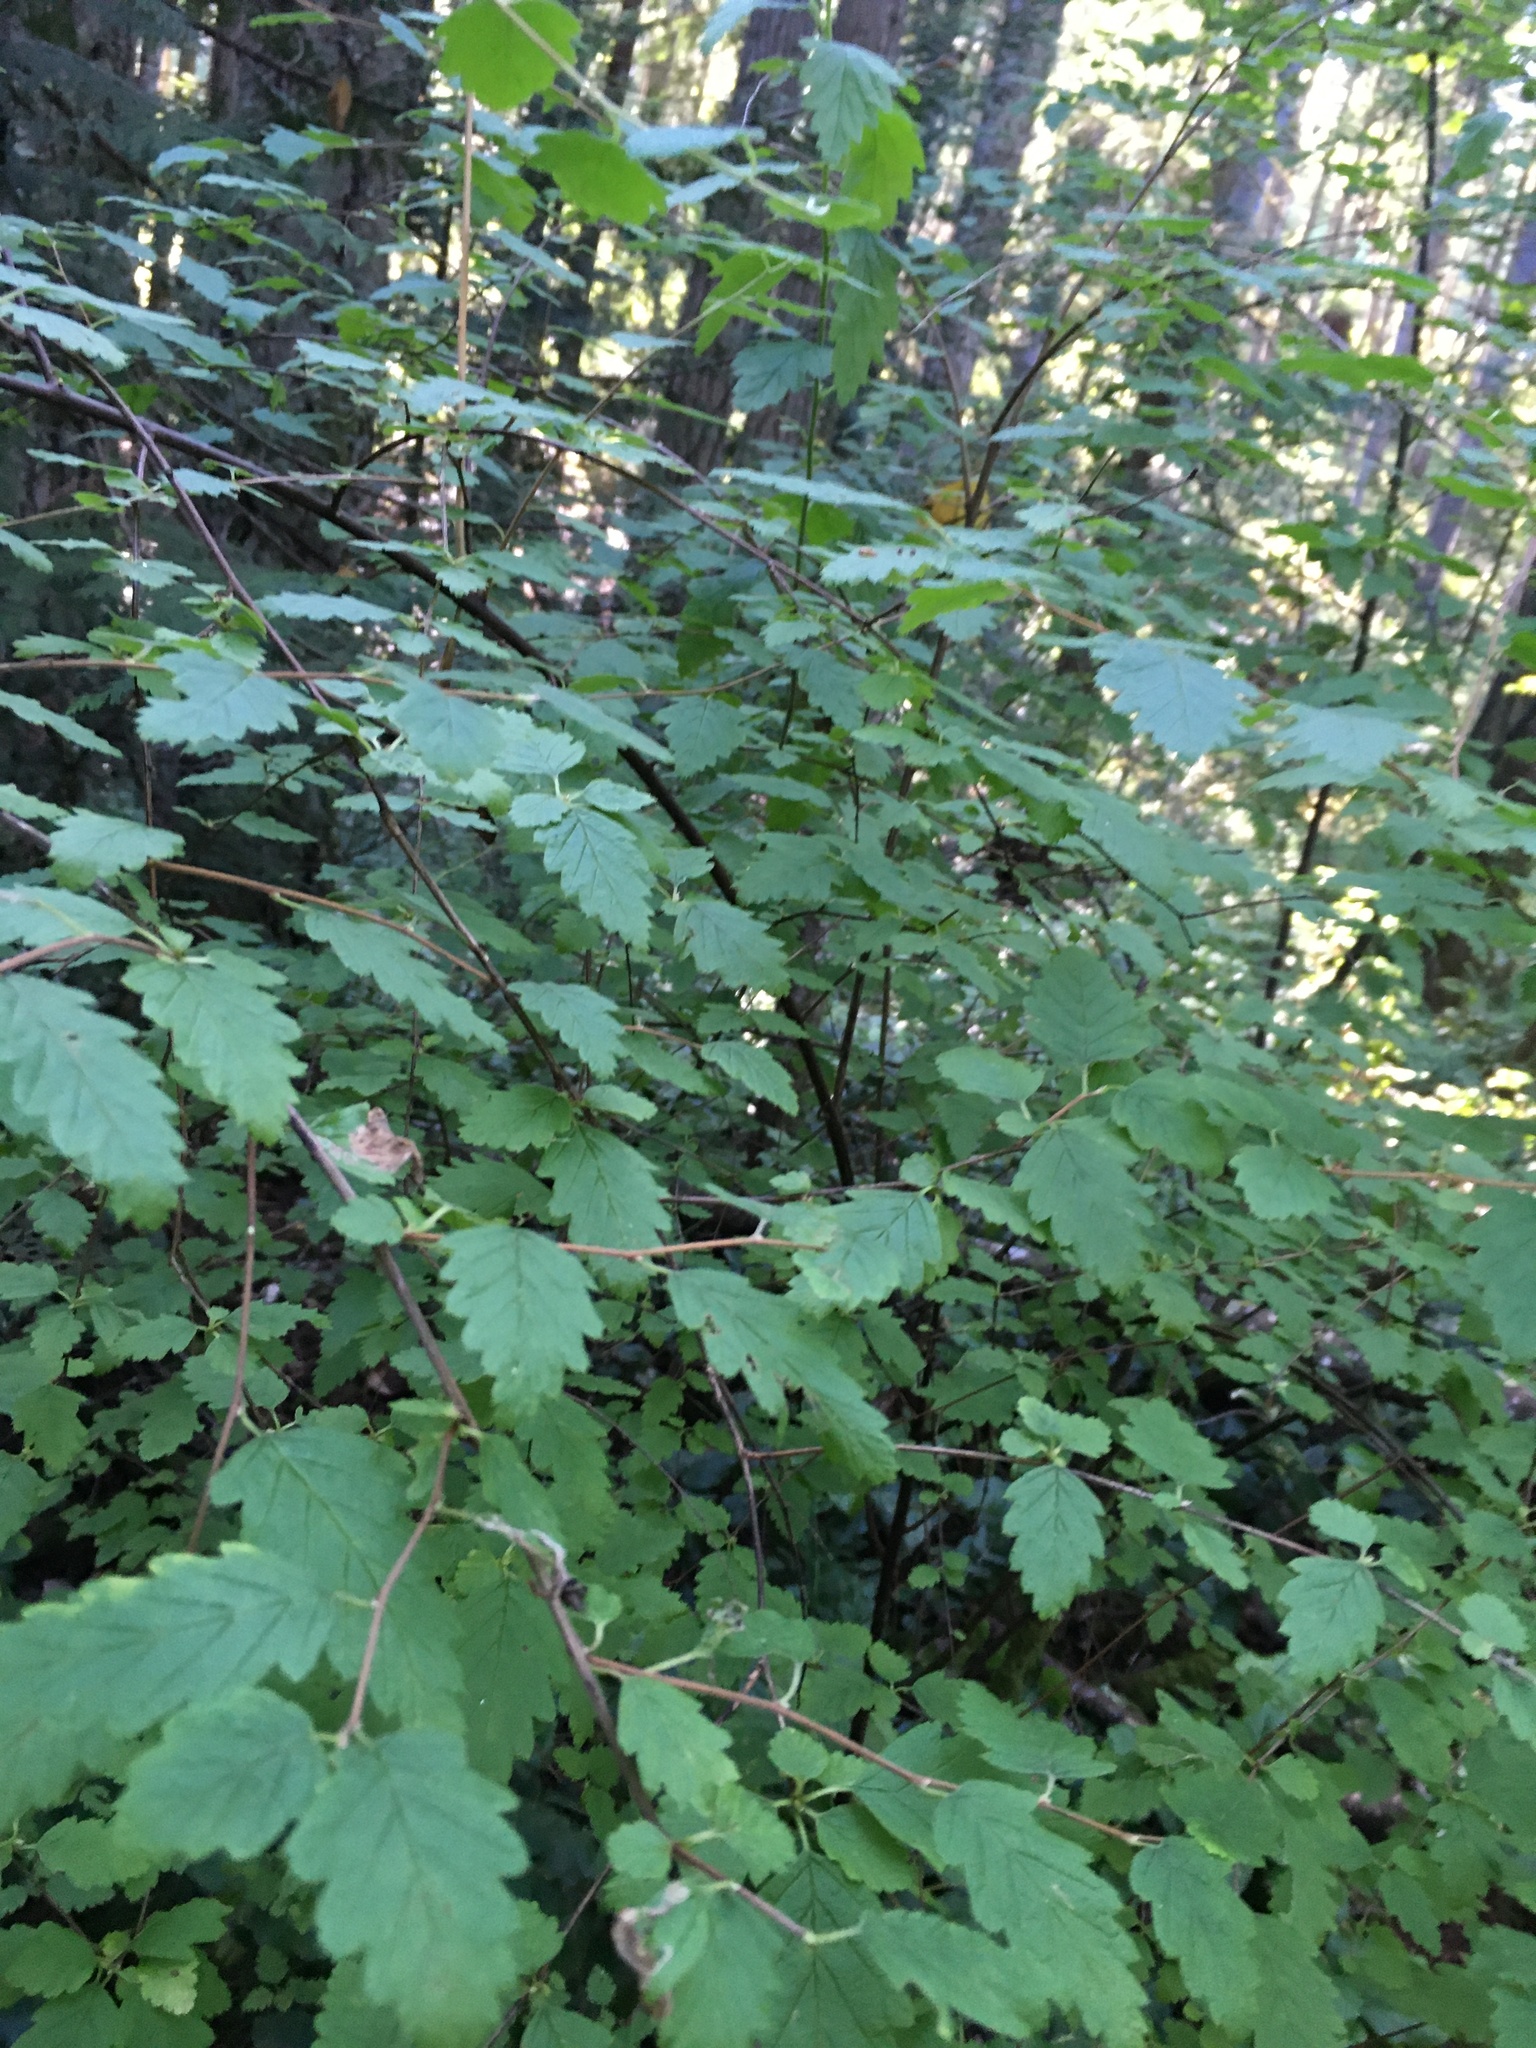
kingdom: Plantae
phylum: Tracheophyta
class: Magnoliopsida
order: Rosales
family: Rosaceae
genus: Holodiscus
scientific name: Holodiscus discolor
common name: Oceanspray
